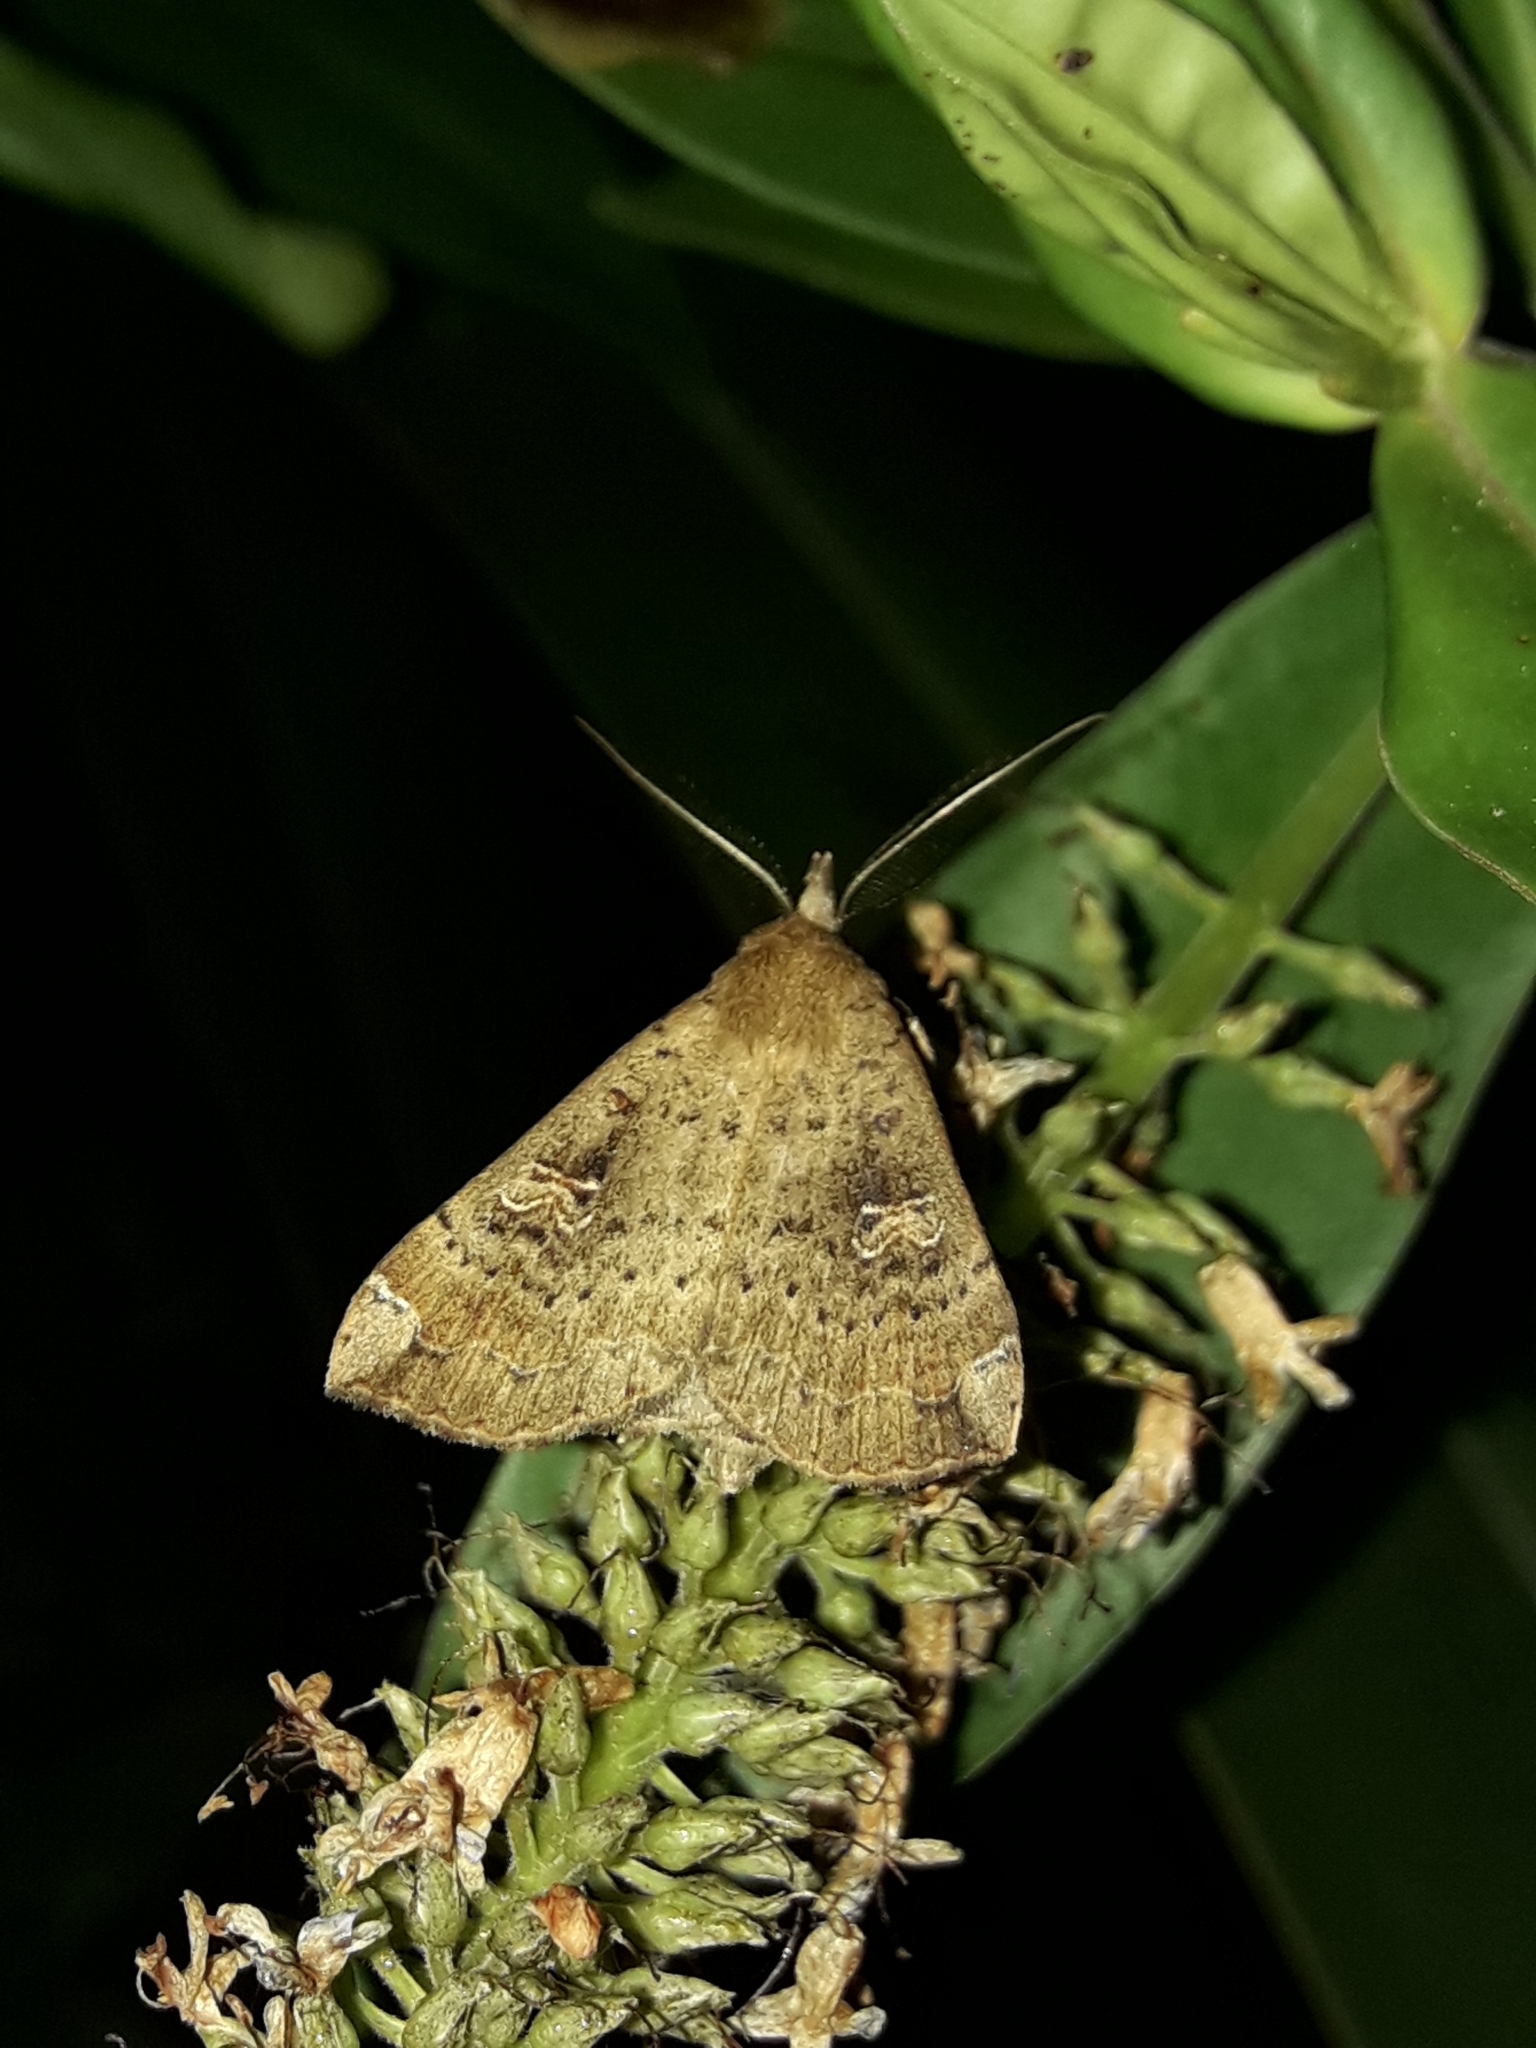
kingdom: Animalia
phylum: Arthropoda
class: Insecta
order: Lepidoptera
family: Erebidae
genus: Rhapsa
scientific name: Rhapsa scotosialis
